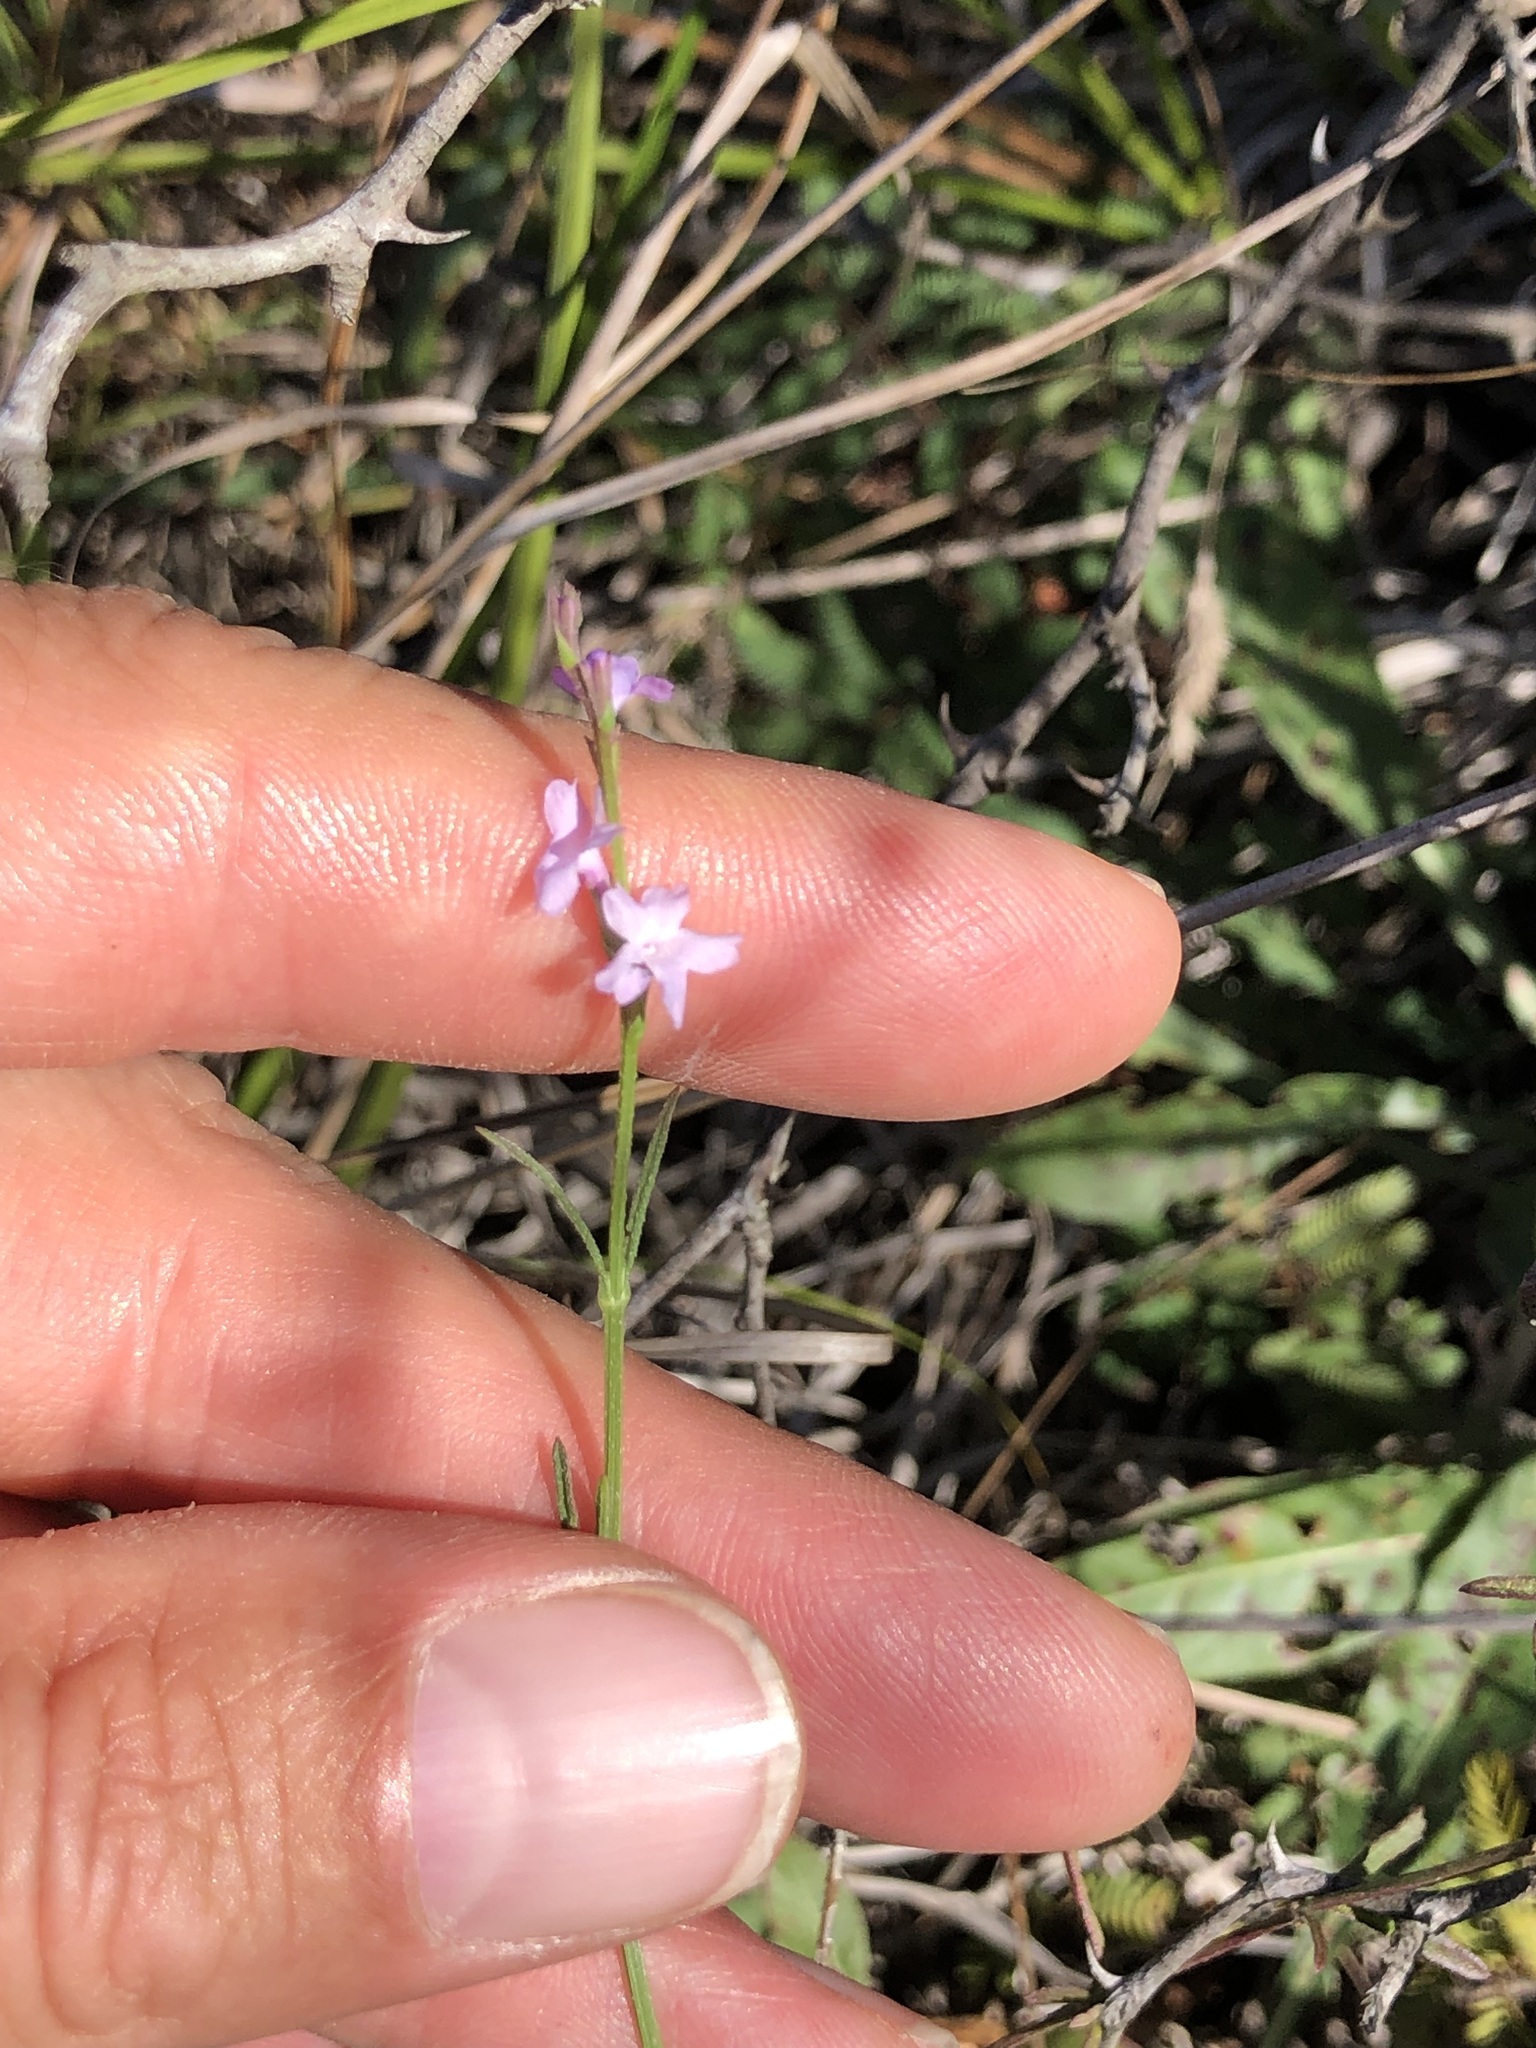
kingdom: Plantae
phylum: Tracheophyta
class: Magnoliopsida
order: Lamiales
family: Verbenaceae
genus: Verbena
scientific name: Verbena halei
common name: Texas vervain
